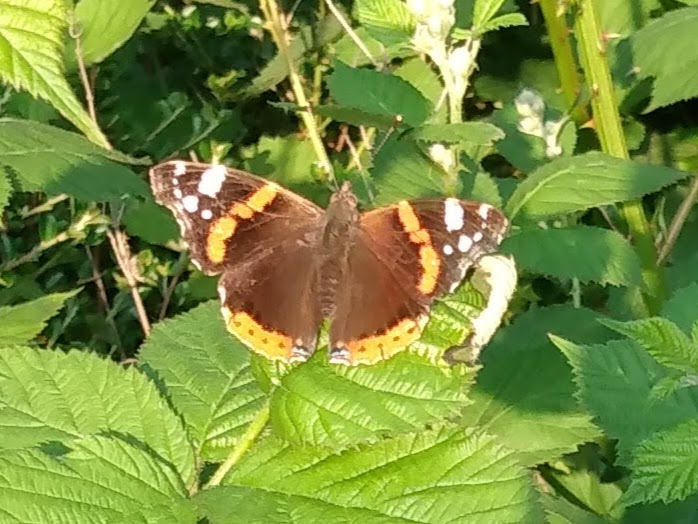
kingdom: Animalia
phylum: Arthropoda
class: Insecta
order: Lepidoptera
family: Nymphalidae
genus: Vanessa
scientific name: Vanessa atalanta
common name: Red admiral
